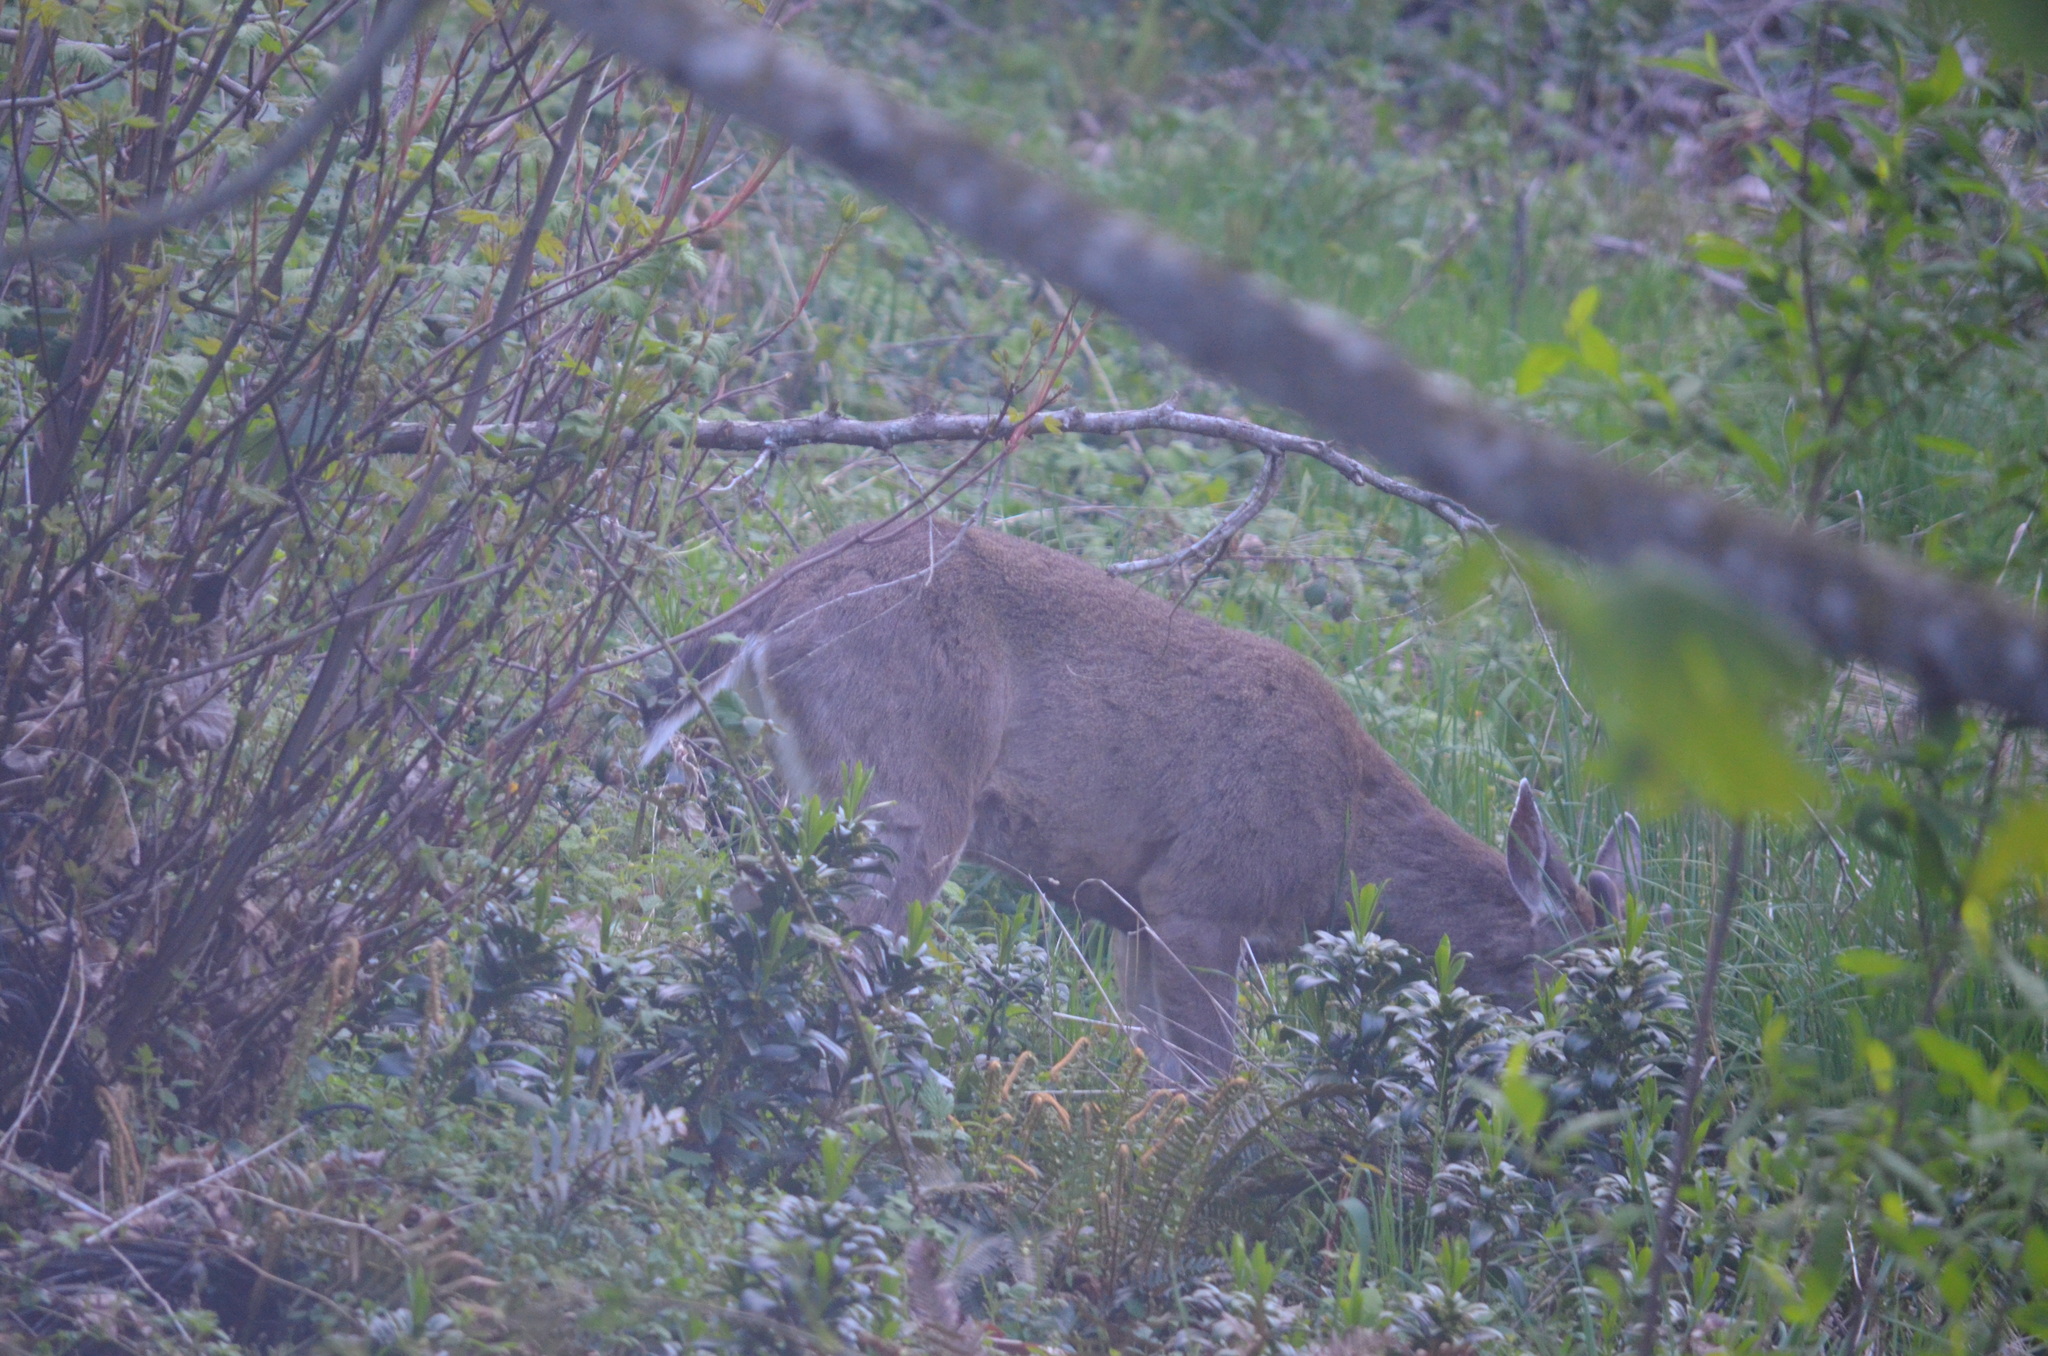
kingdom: Animalia
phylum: Chordata
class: Mammalia
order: Artiodactyla
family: Cervidae
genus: Odocoileus
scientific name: Odocoileus hemionus
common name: Mule deer
